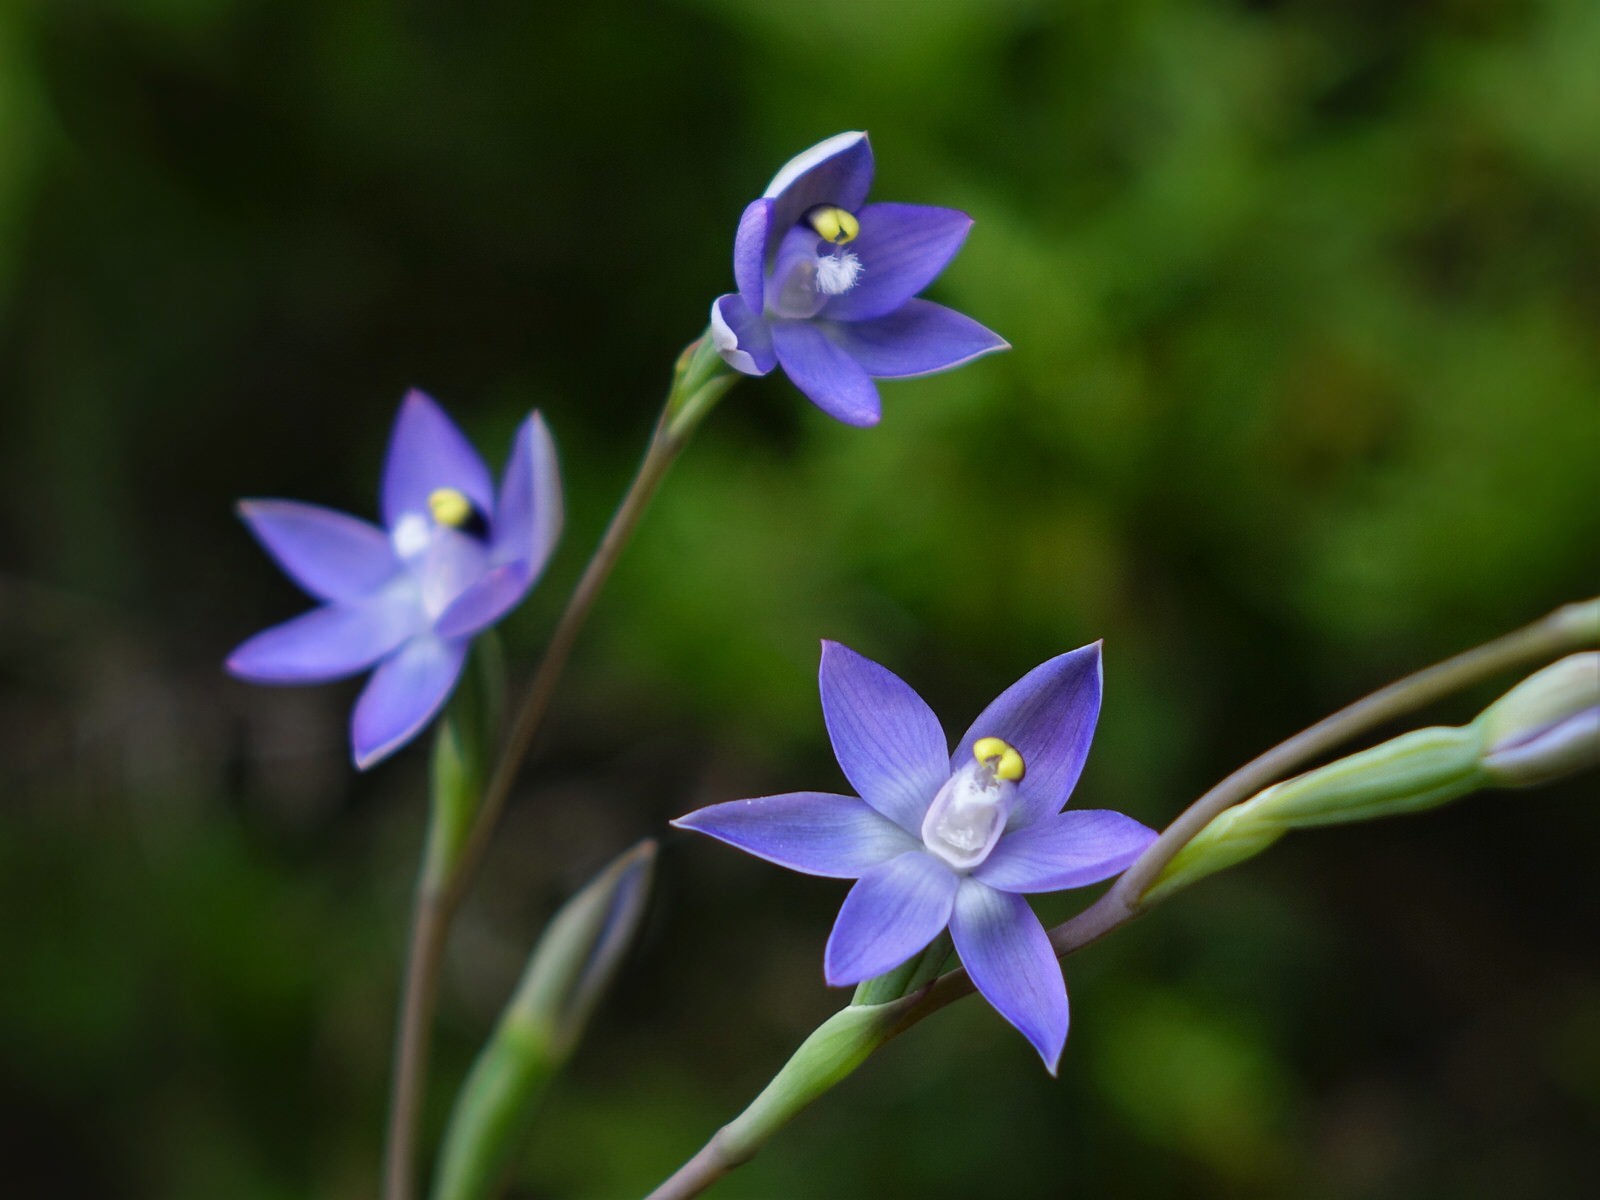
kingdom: Plantae
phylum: Tracheophyta
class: Liliopsida
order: Asparagales
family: Orchidaceae
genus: Thelymitra
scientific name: Thelymitra pauciflora
